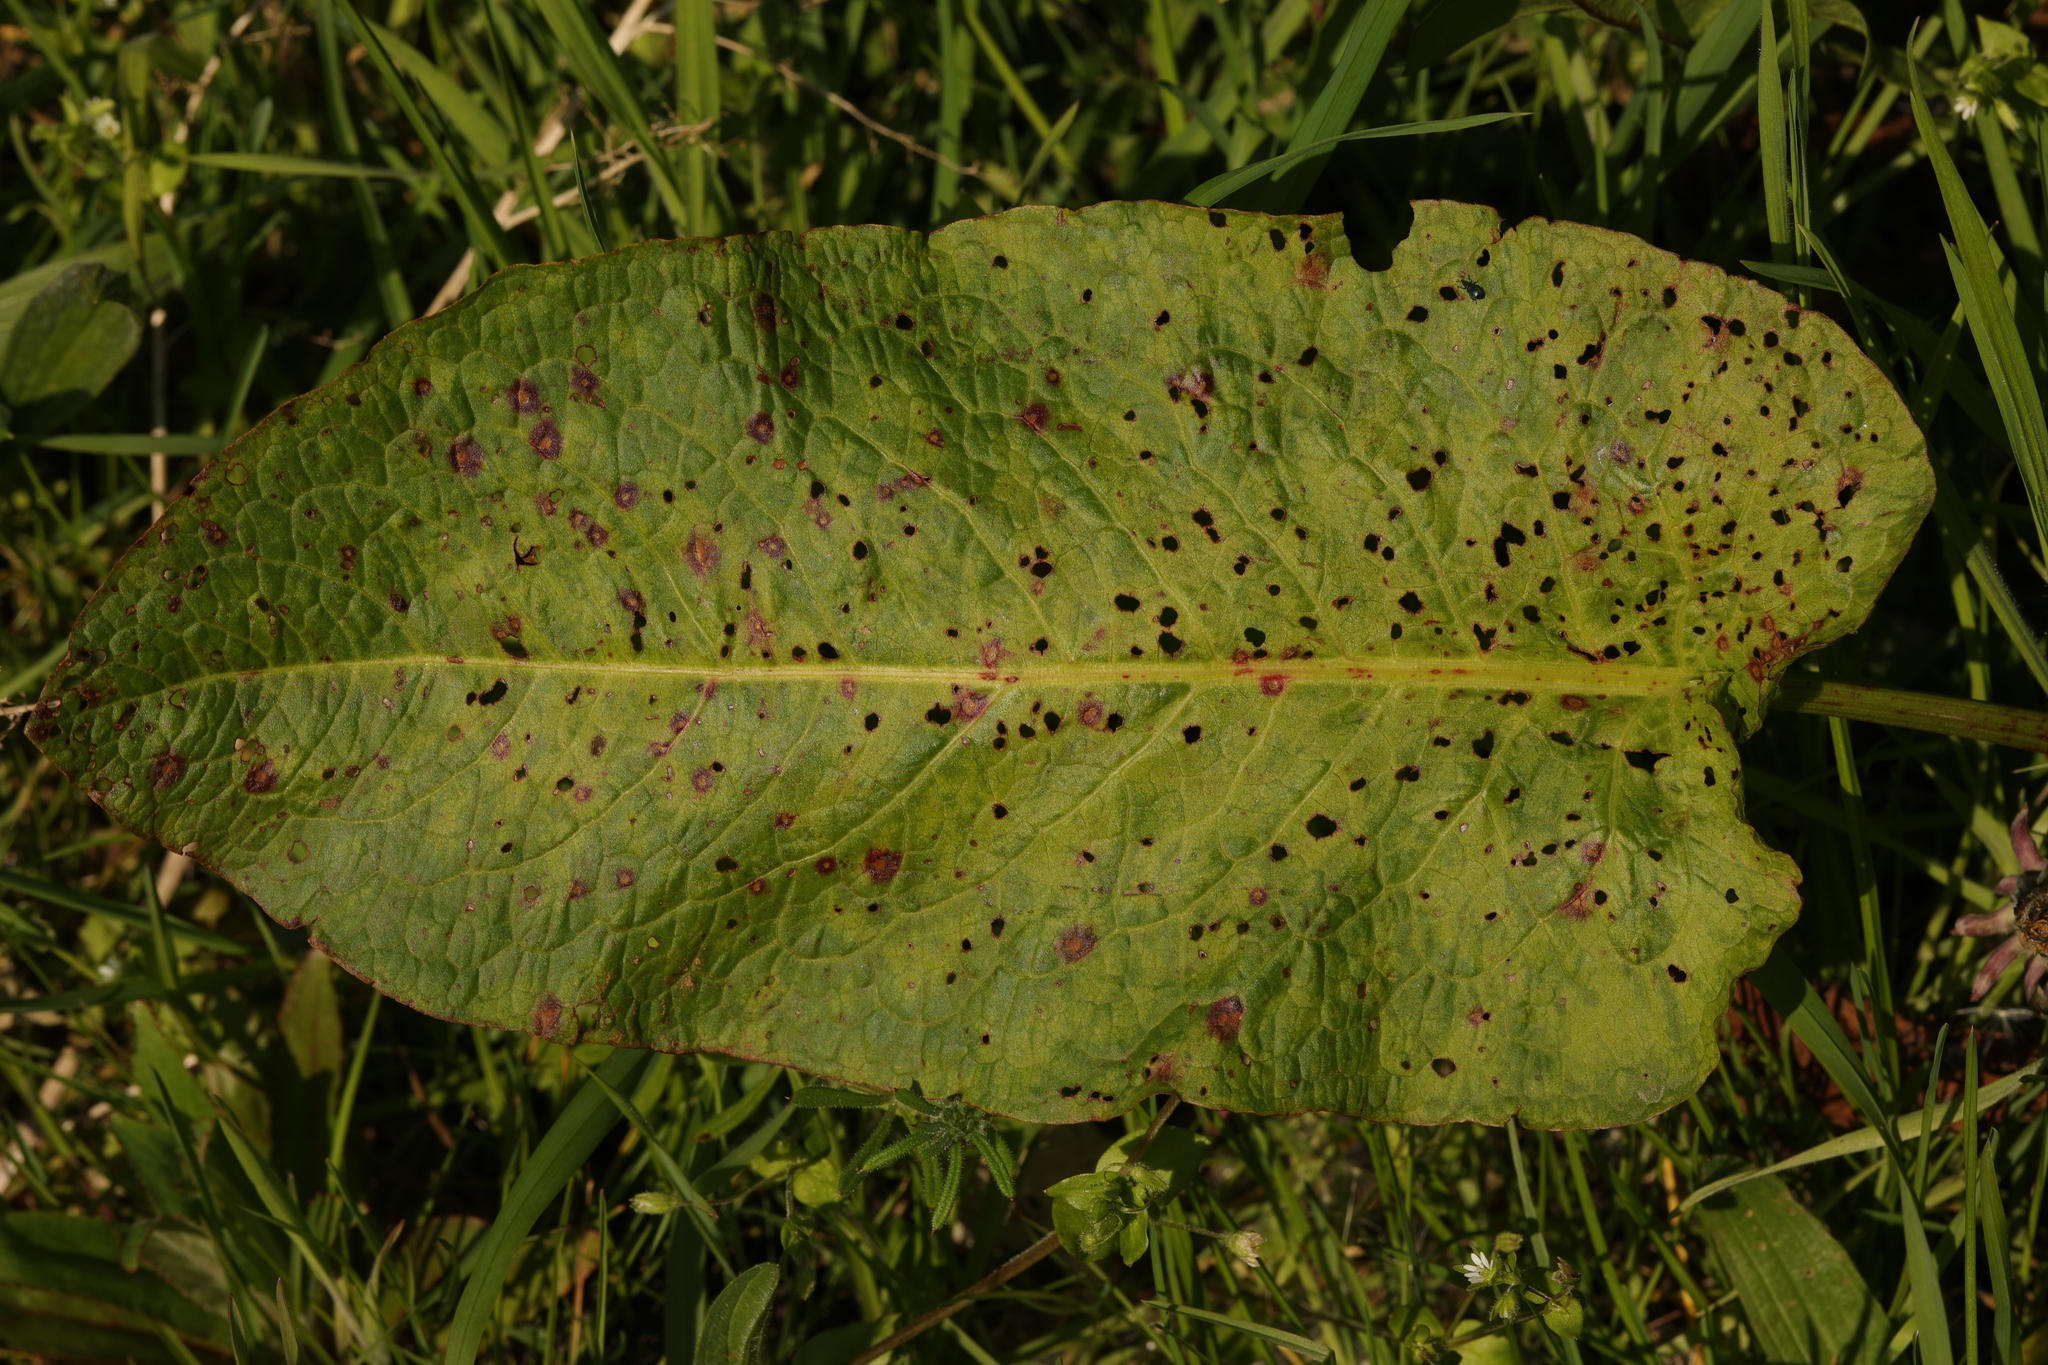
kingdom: Plantae
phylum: Tracheophyta
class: Magnoliopsida
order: Caryophyllales
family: Polygonaceae
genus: Rumex
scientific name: Rumex obtusifolius
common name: Bitter dock
